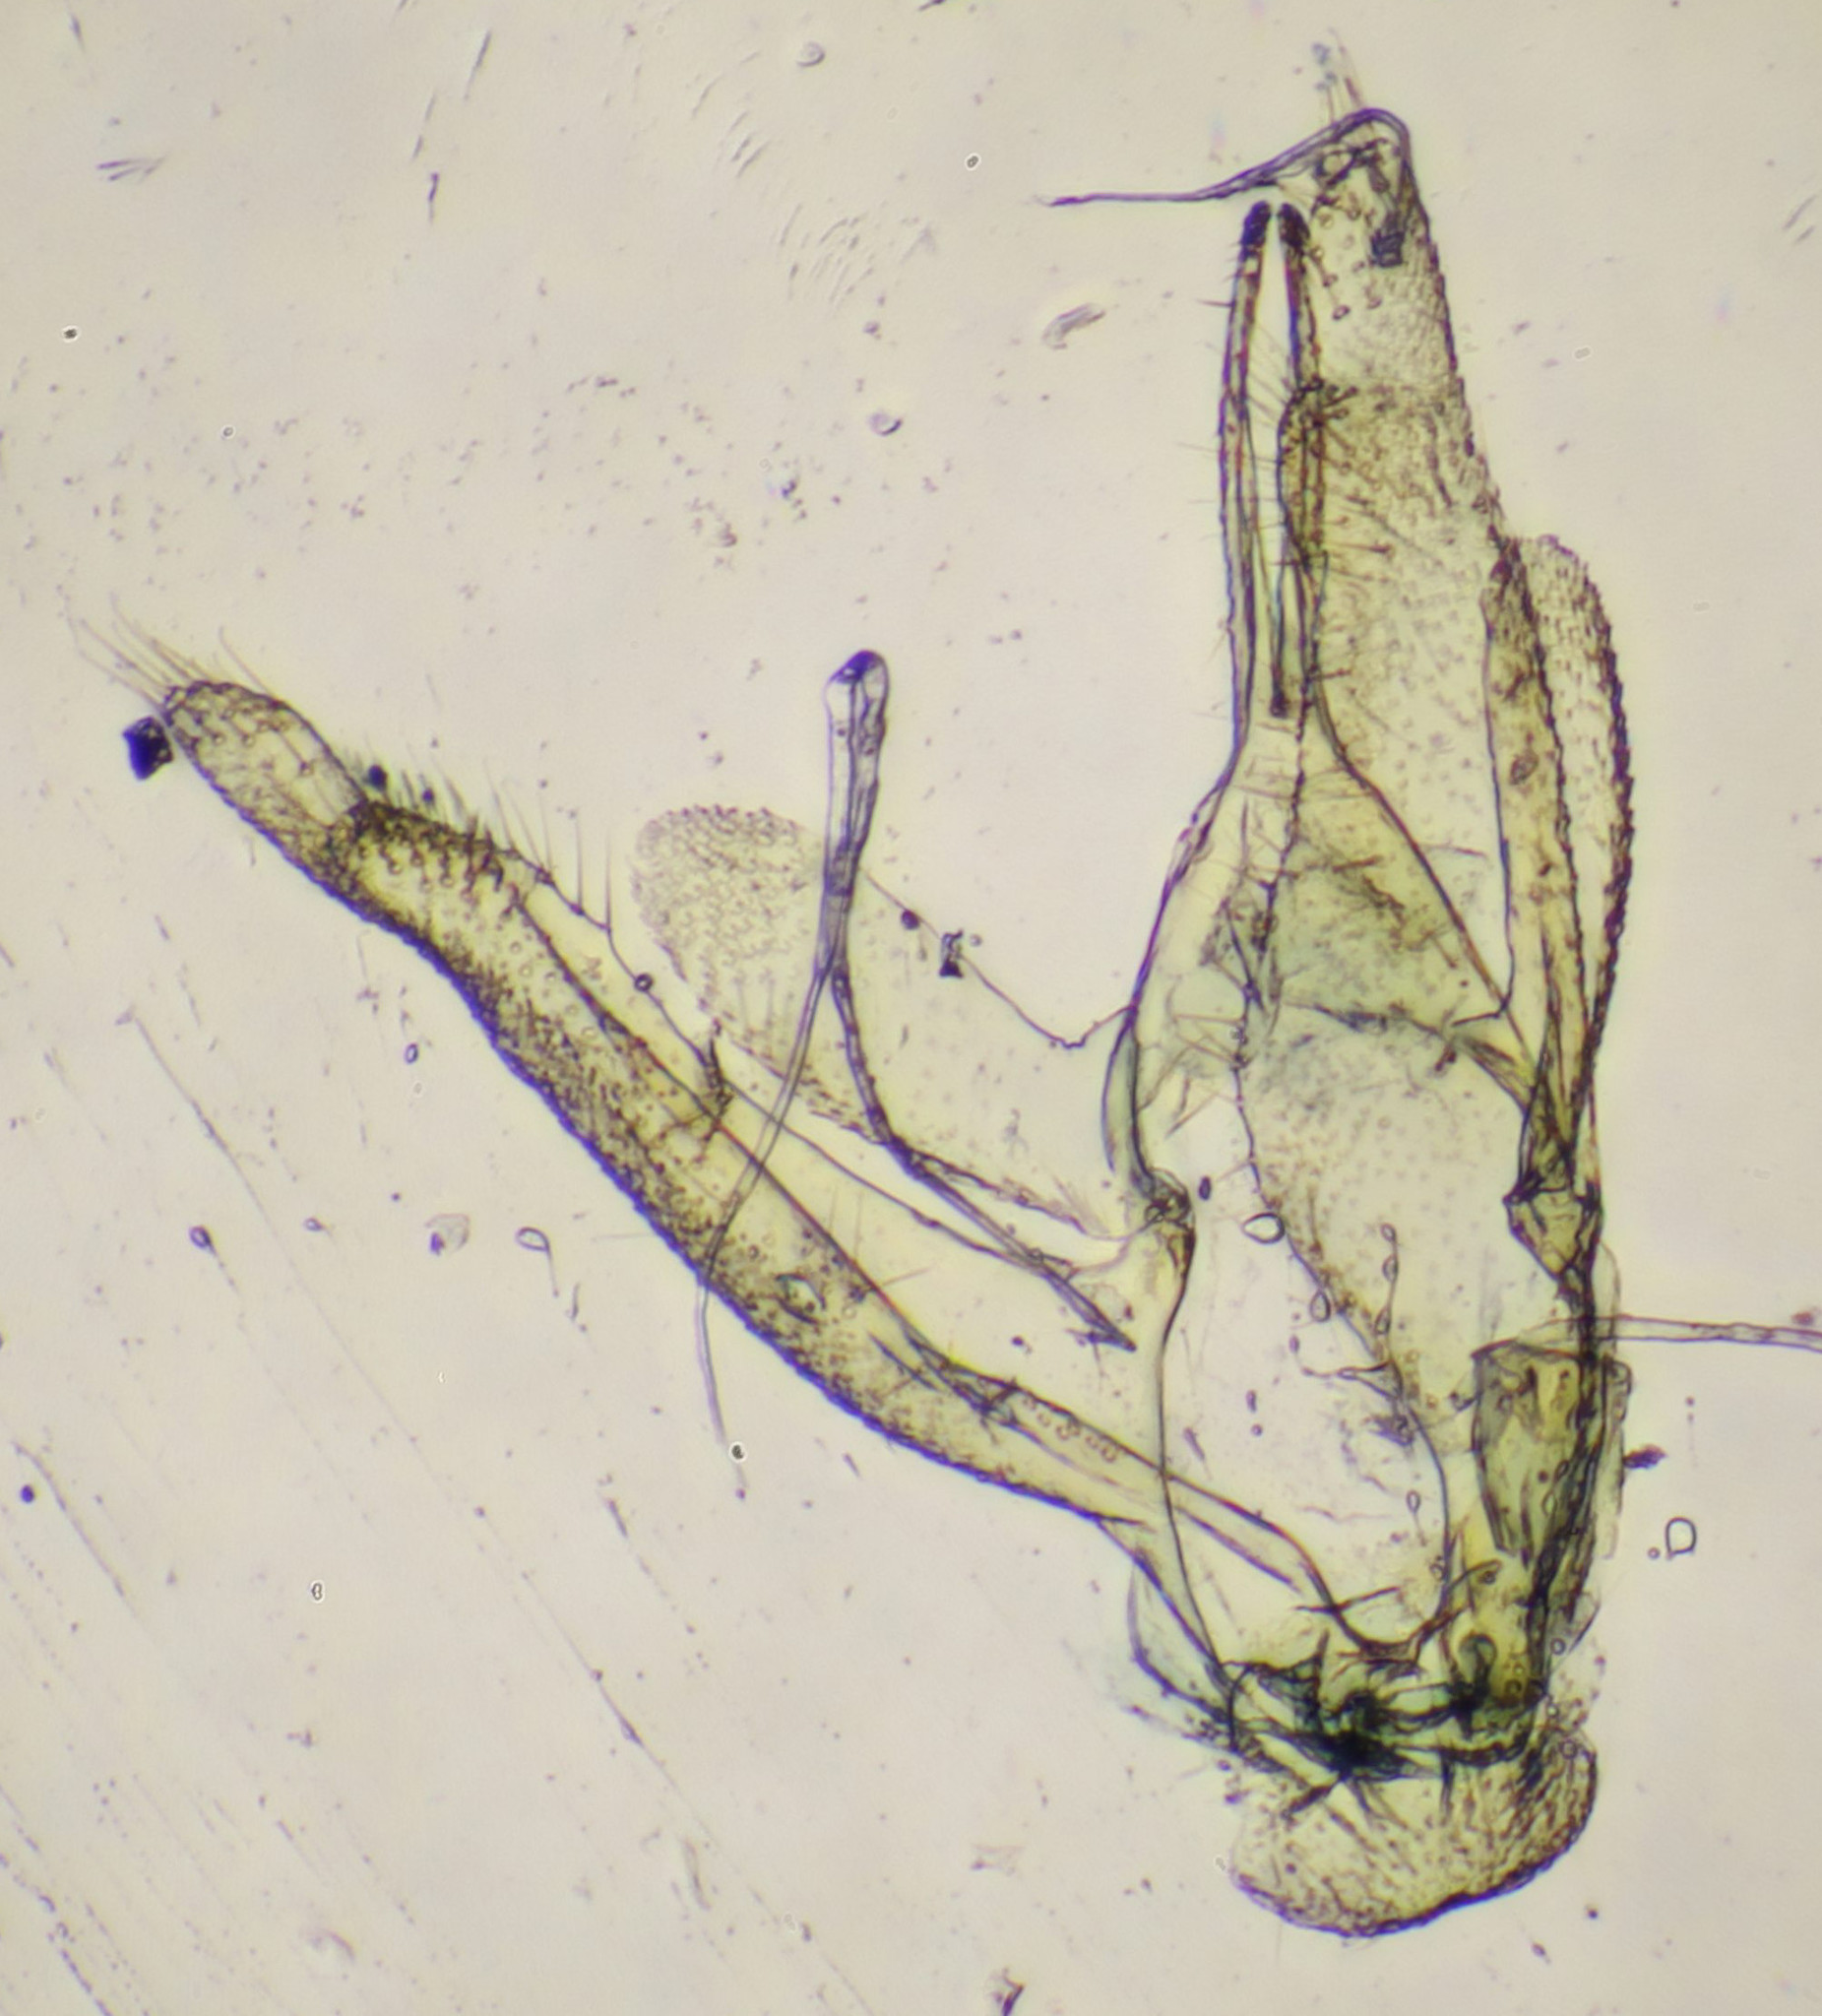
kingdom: Animalia
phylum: Arthropoda
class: Insecta
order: Lepidoptera
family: Pterophoridae
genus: Stenodacma
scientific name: Stenodacma wahlbergi
